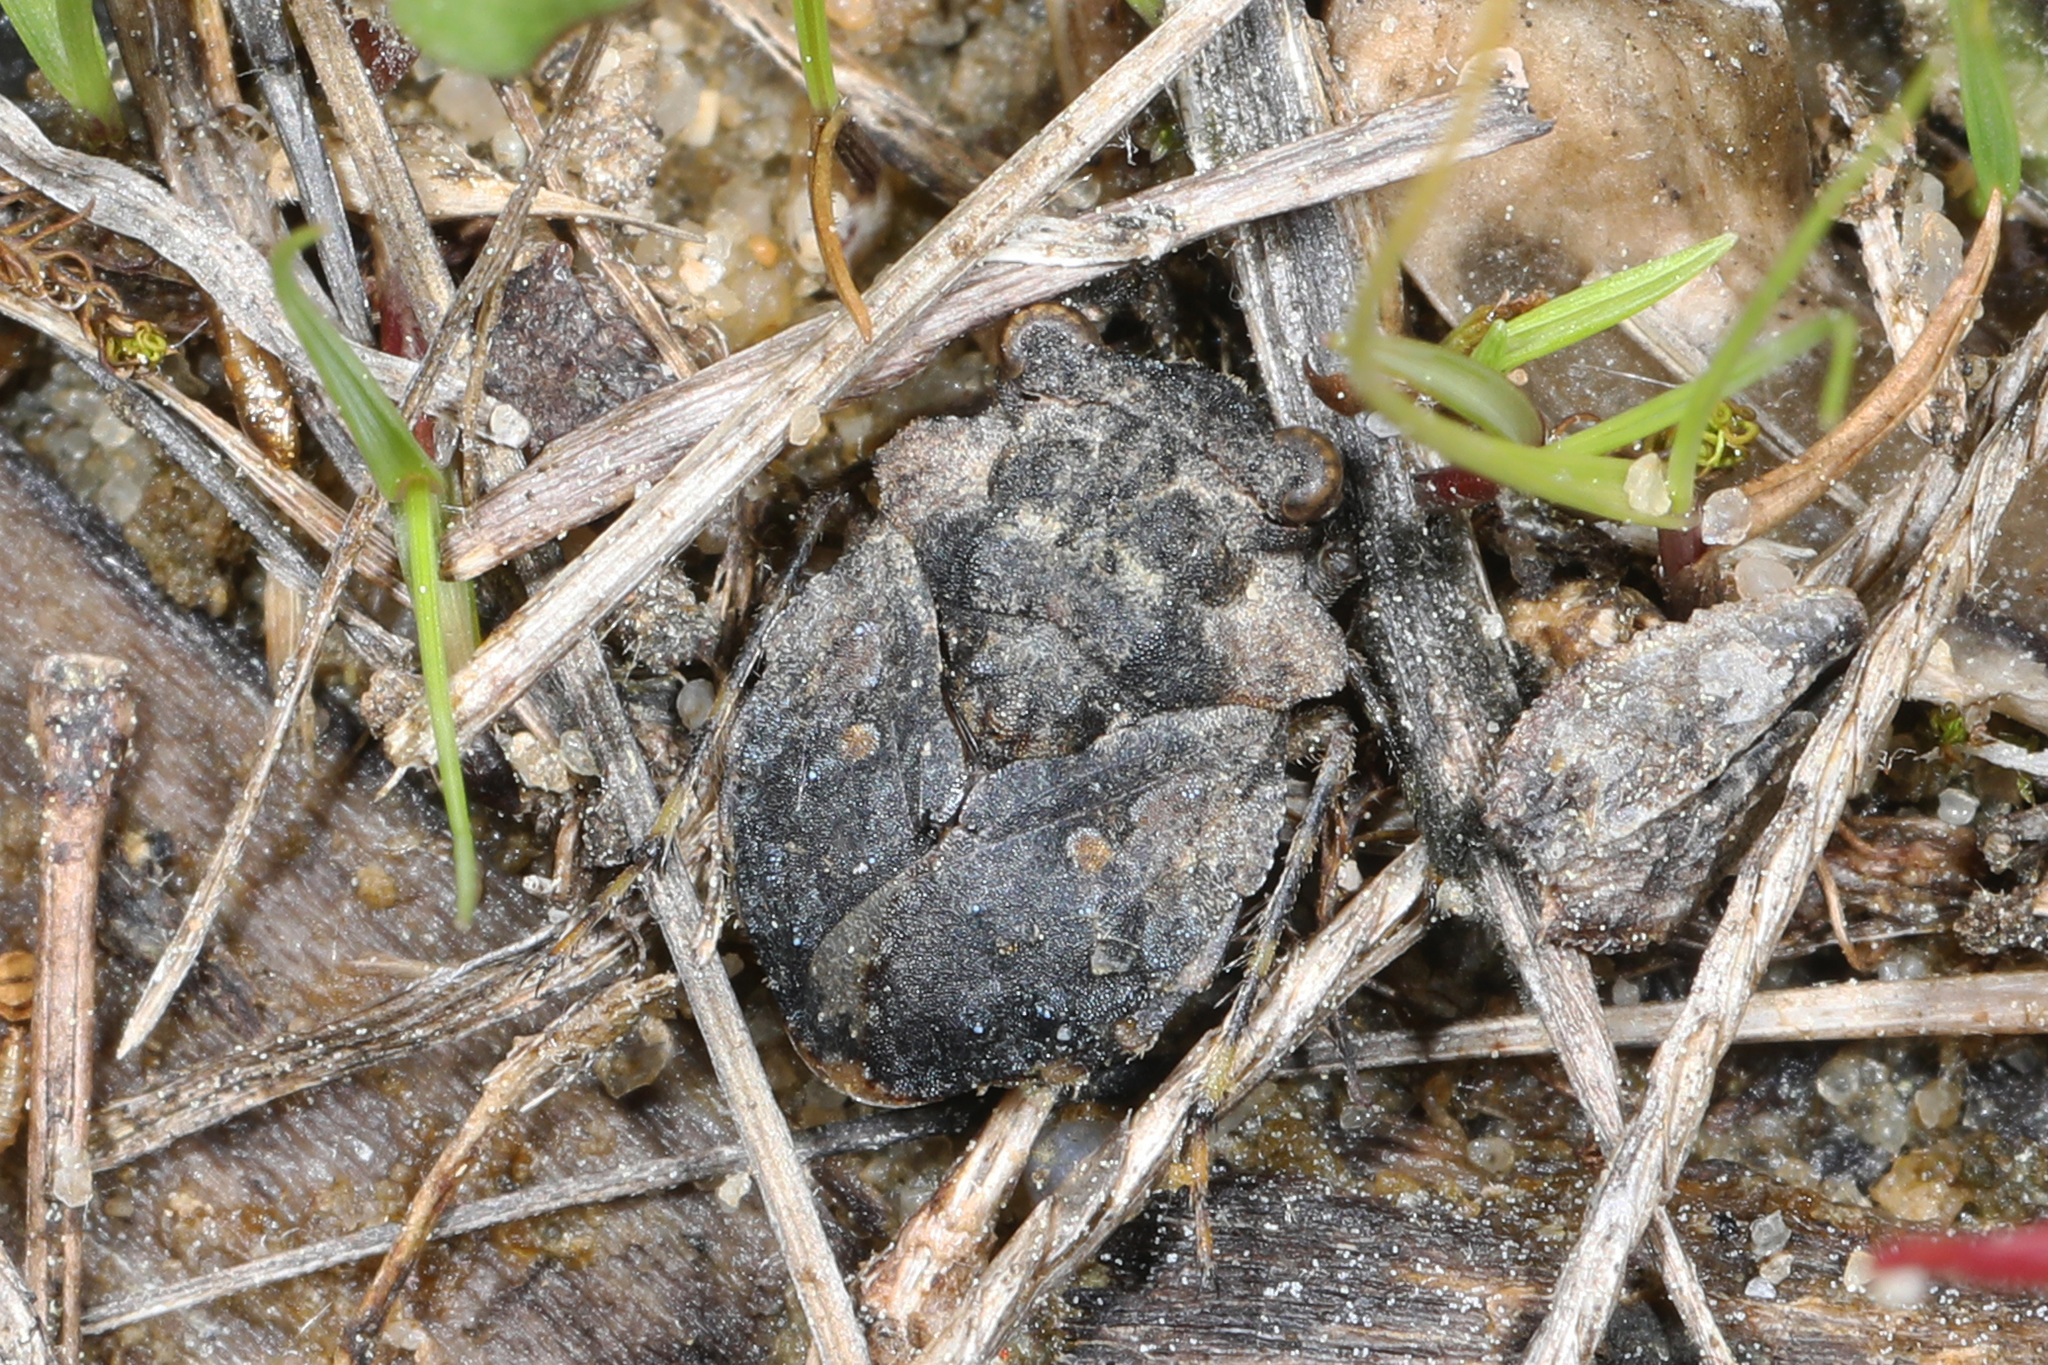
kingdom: Animalia
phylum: Arthropoda
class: Insecta
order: Hemiptera
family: Gelastocoridae
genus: Gelastocoris
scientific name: Gelastocoris oculatus
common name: Toad bug
